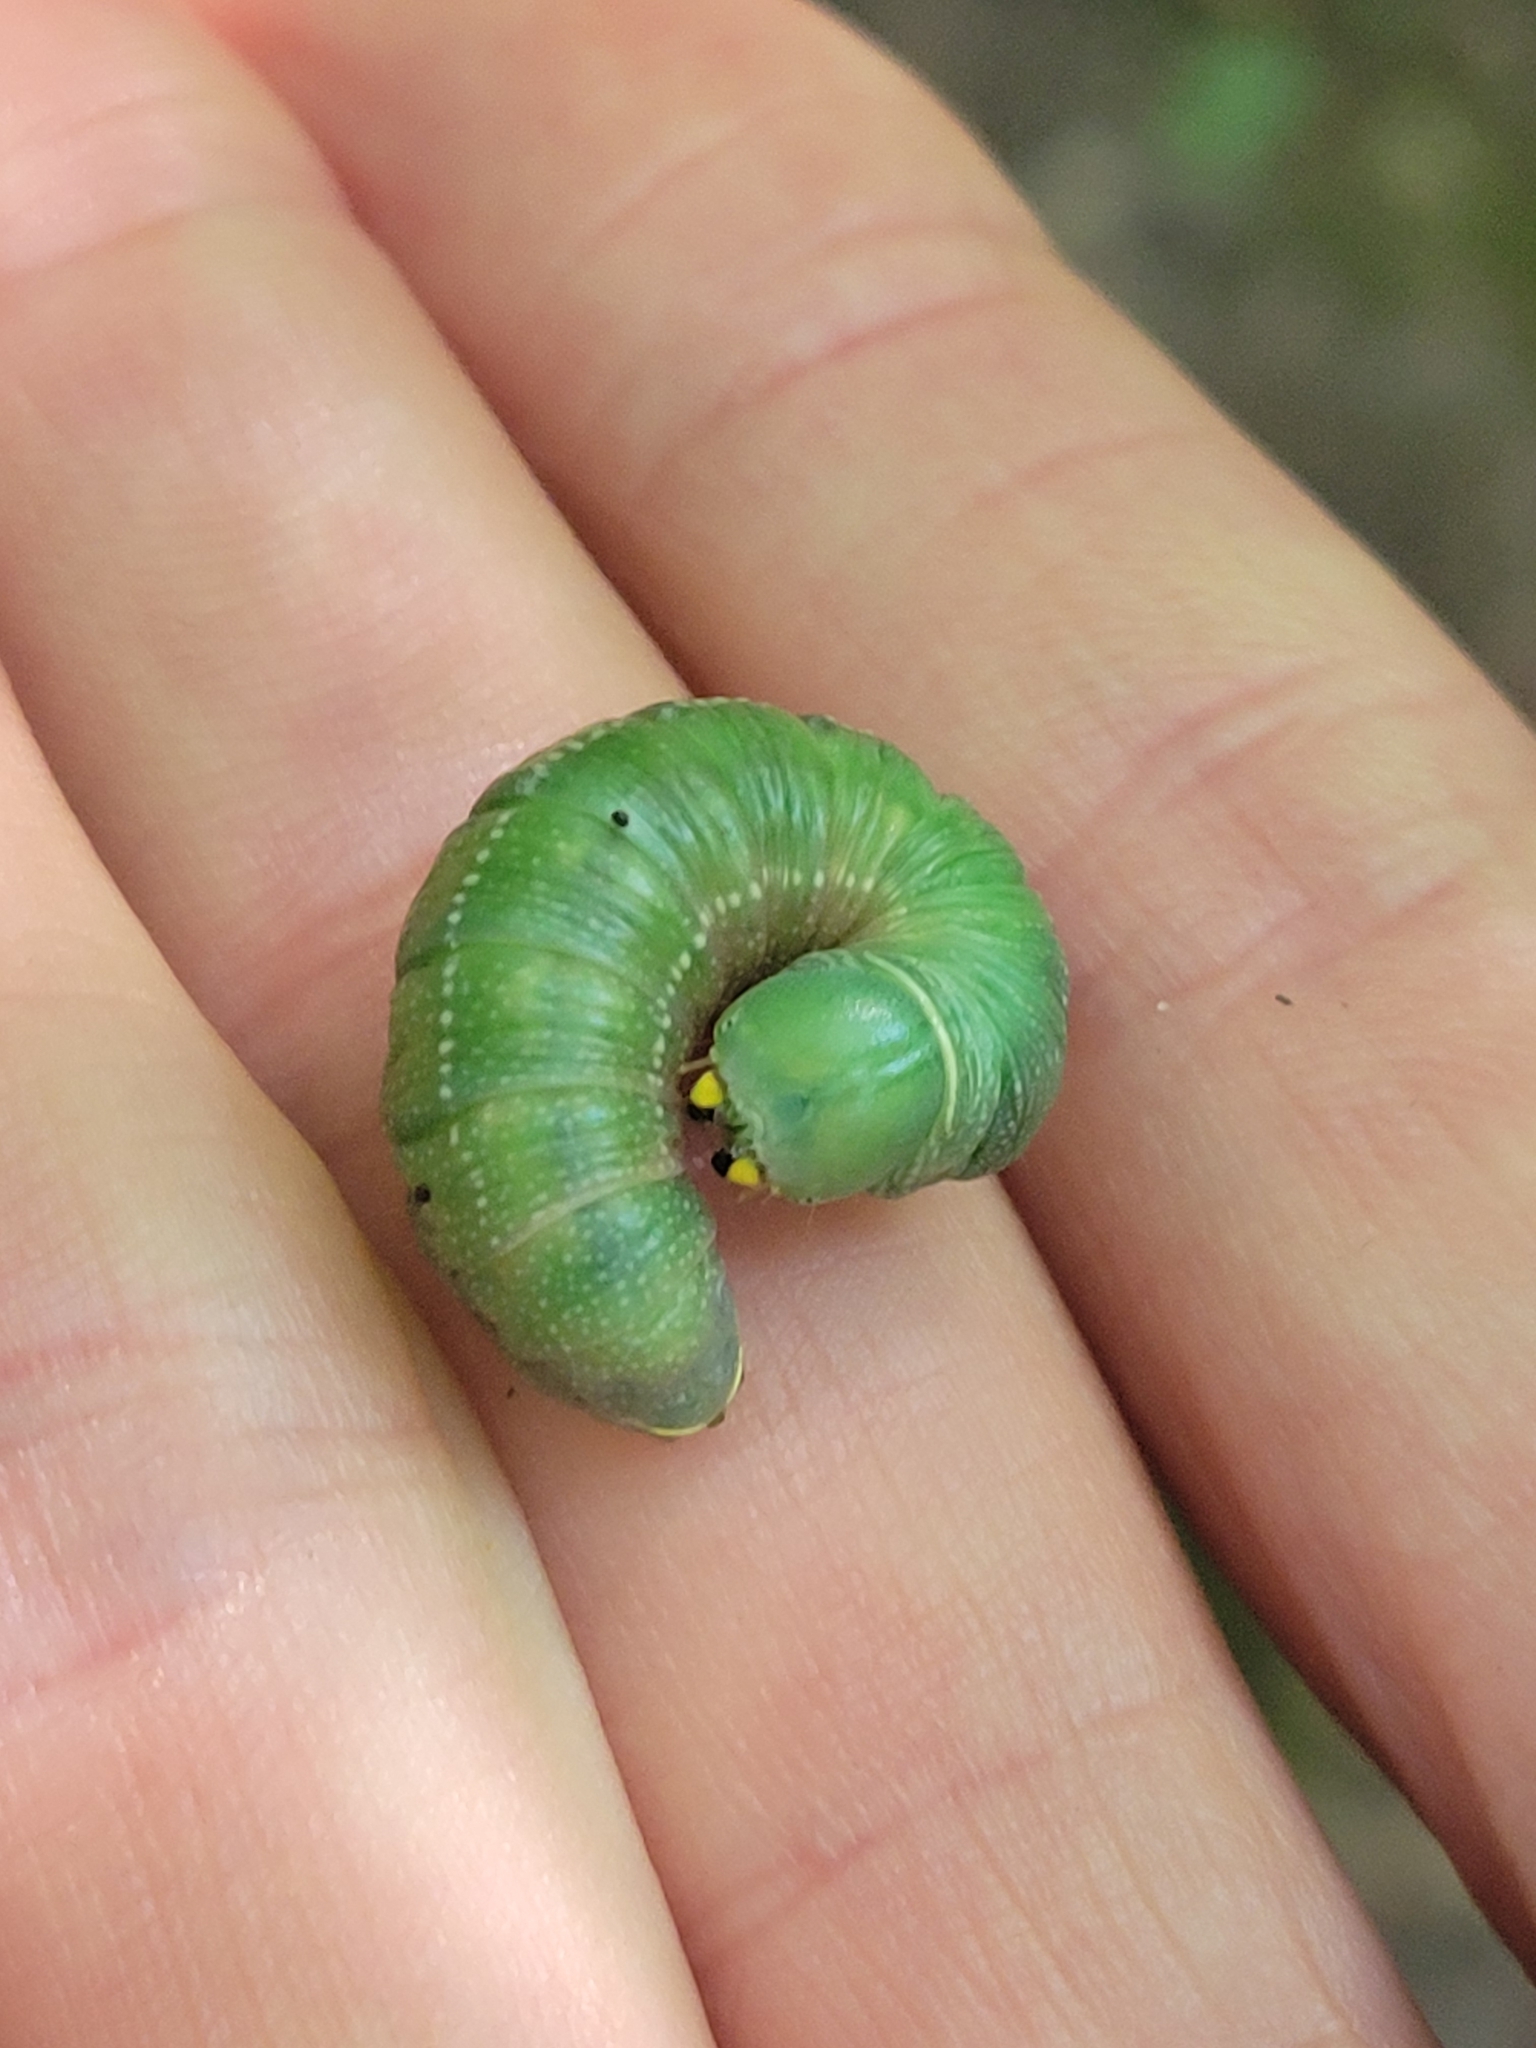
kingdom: Animalia
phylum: Arthropoda
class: Insecta
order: Lepidoptera
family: Notodontidae
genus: Nadata
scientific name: Nadata gibbosa
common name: White-dotted prominent
